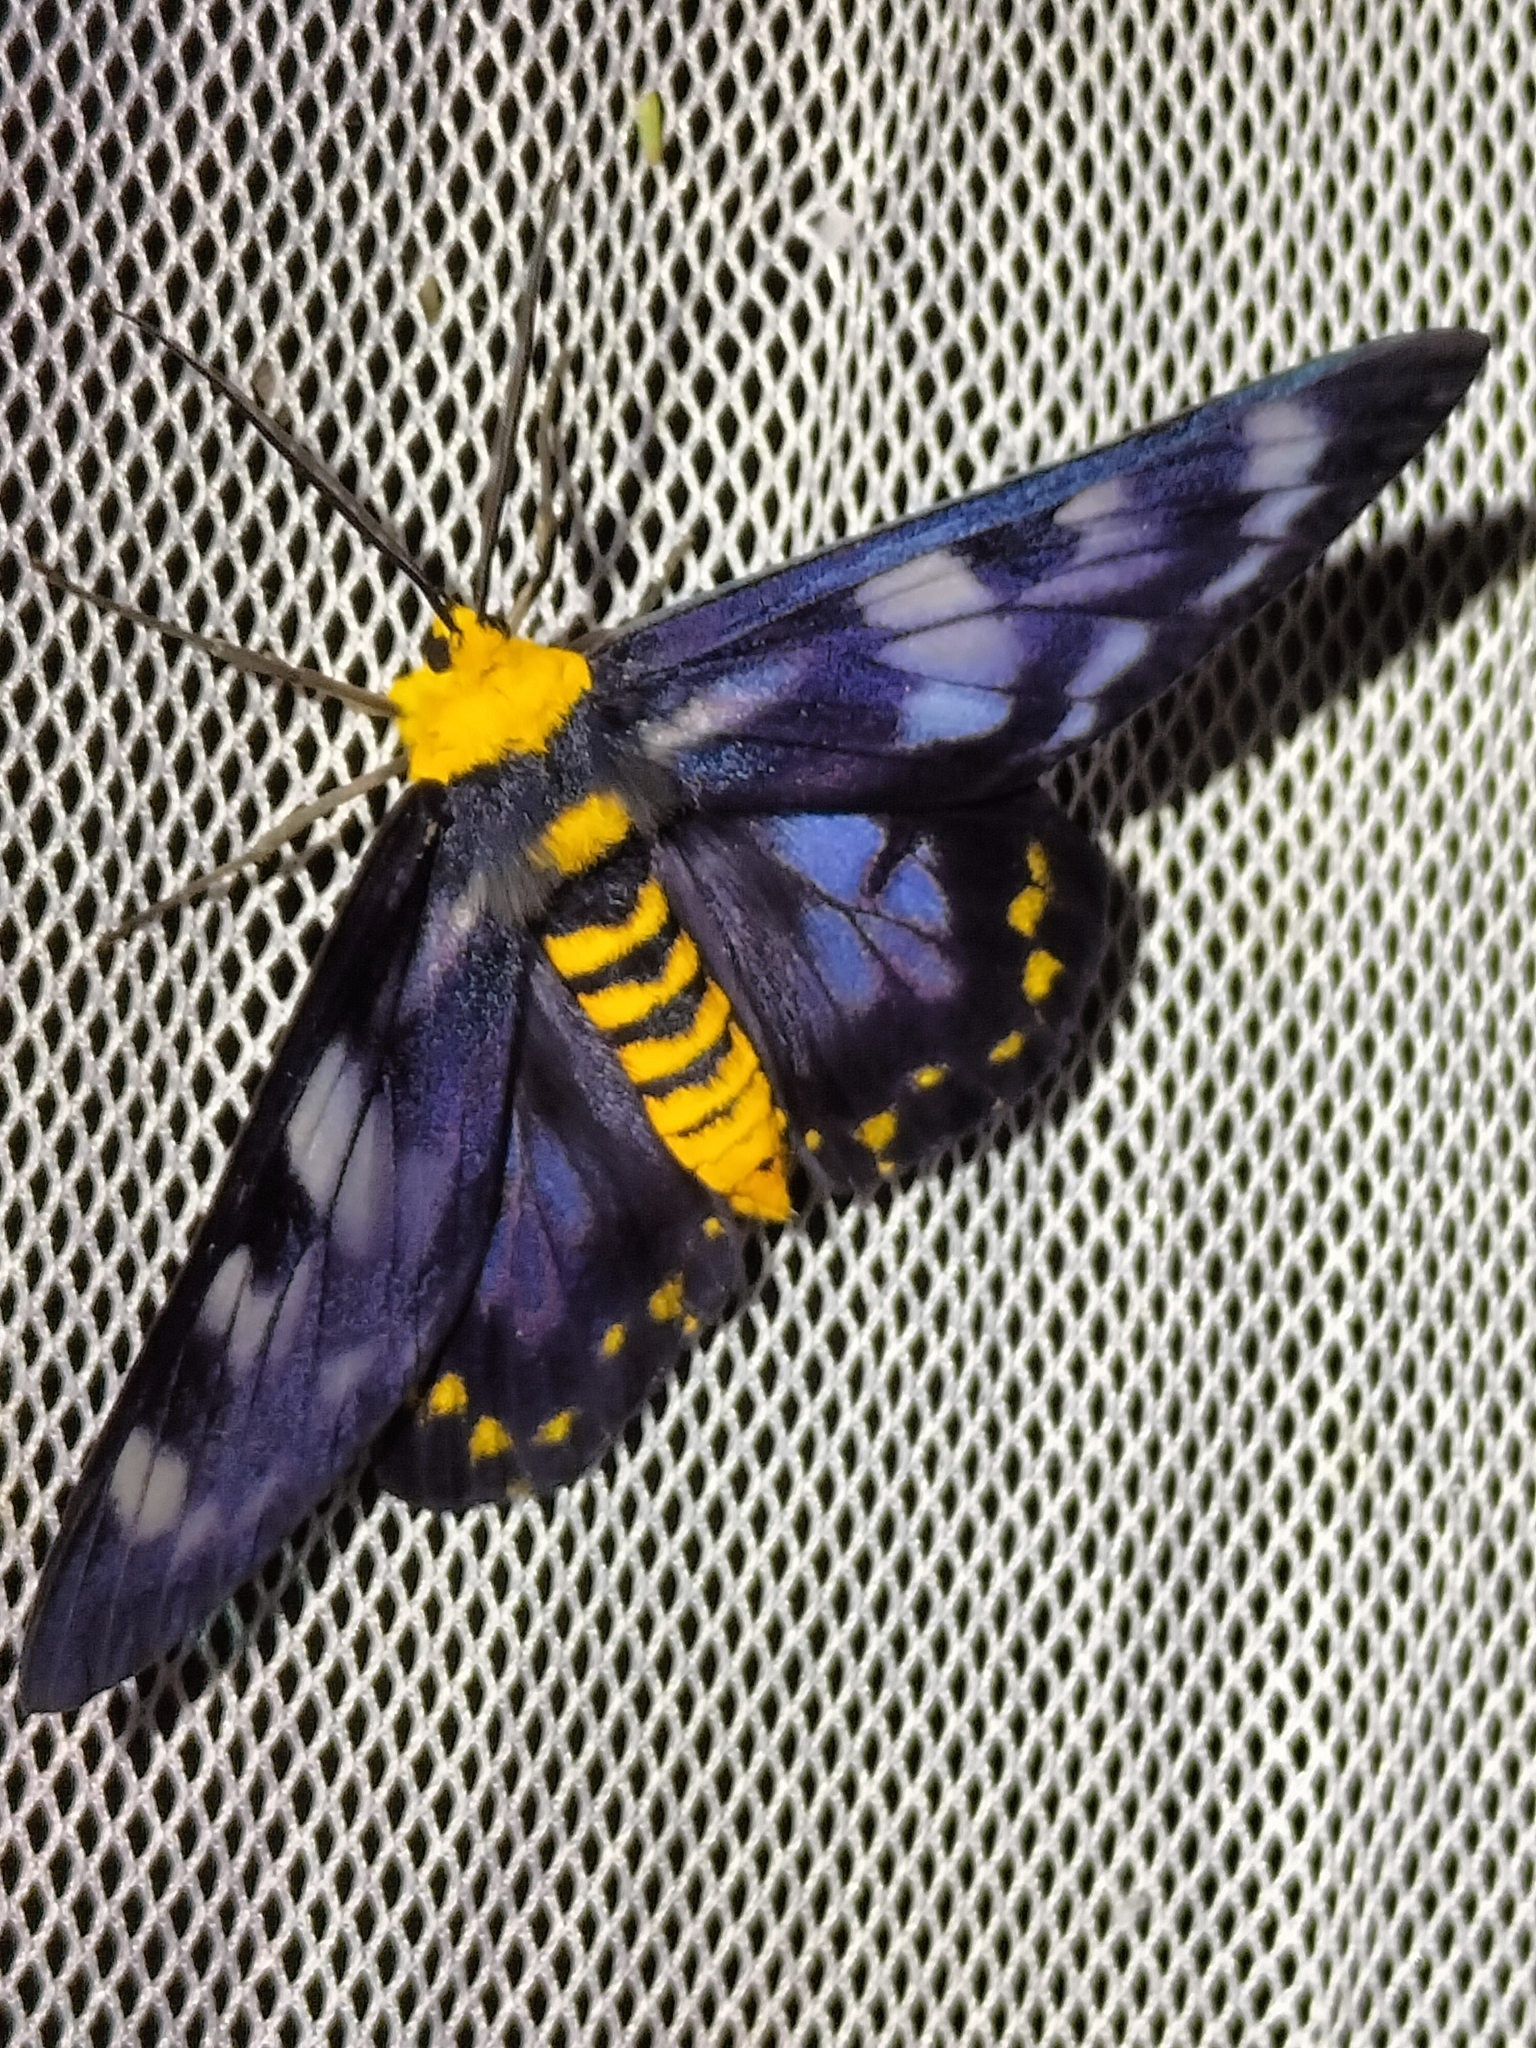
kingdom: Animalia
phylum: Arthropoda
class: Insecta
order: Lepidoptera
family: Geometridae
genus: Dysphania
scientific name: Dysphania numana
